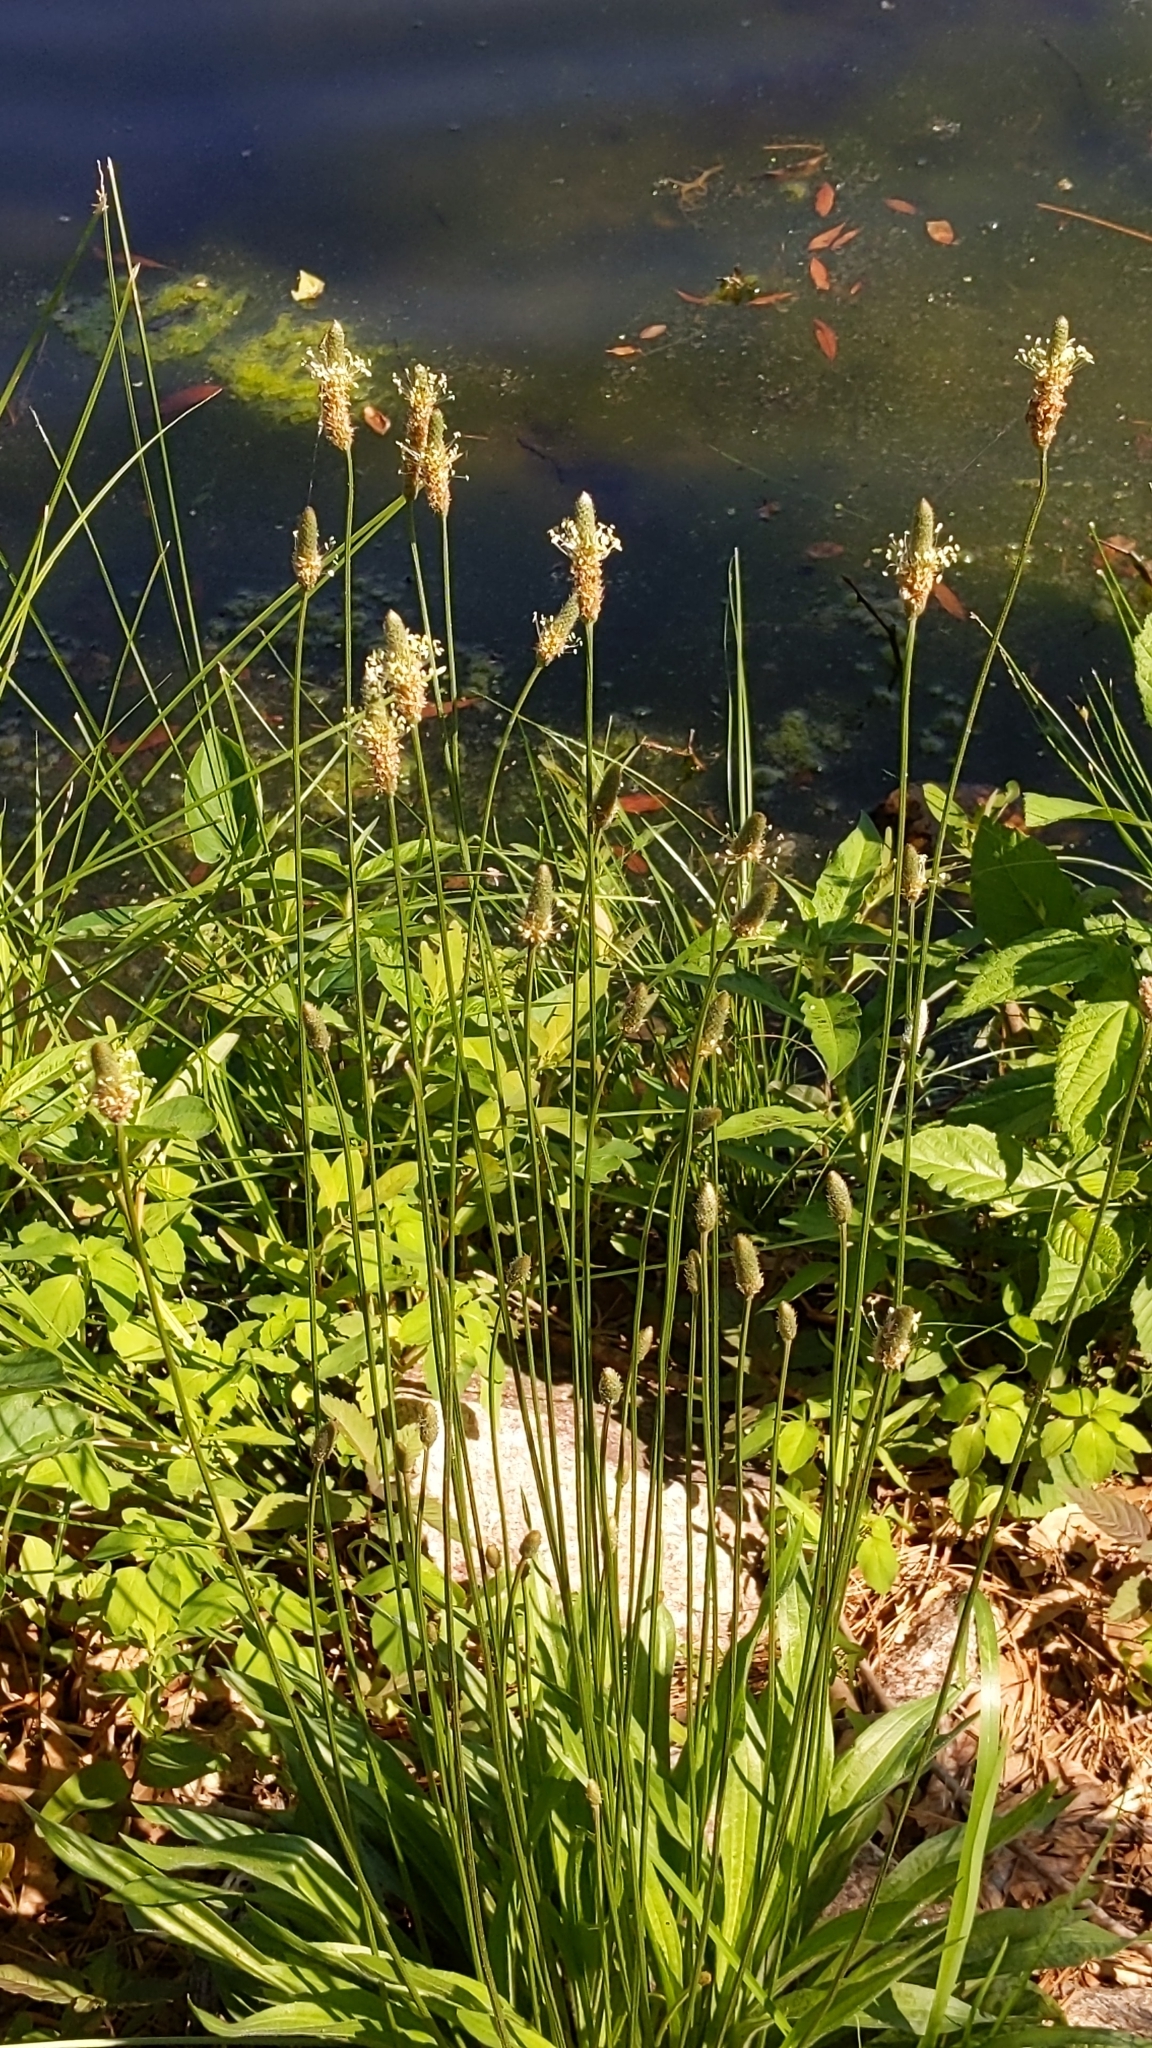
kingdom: Plantae
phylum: Tracheophyta
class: Magnoliopsida
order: Lamiales
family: Plantaginaceae
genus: Plantago
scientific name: Plantago lanceolata
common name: Ribwort plantain
